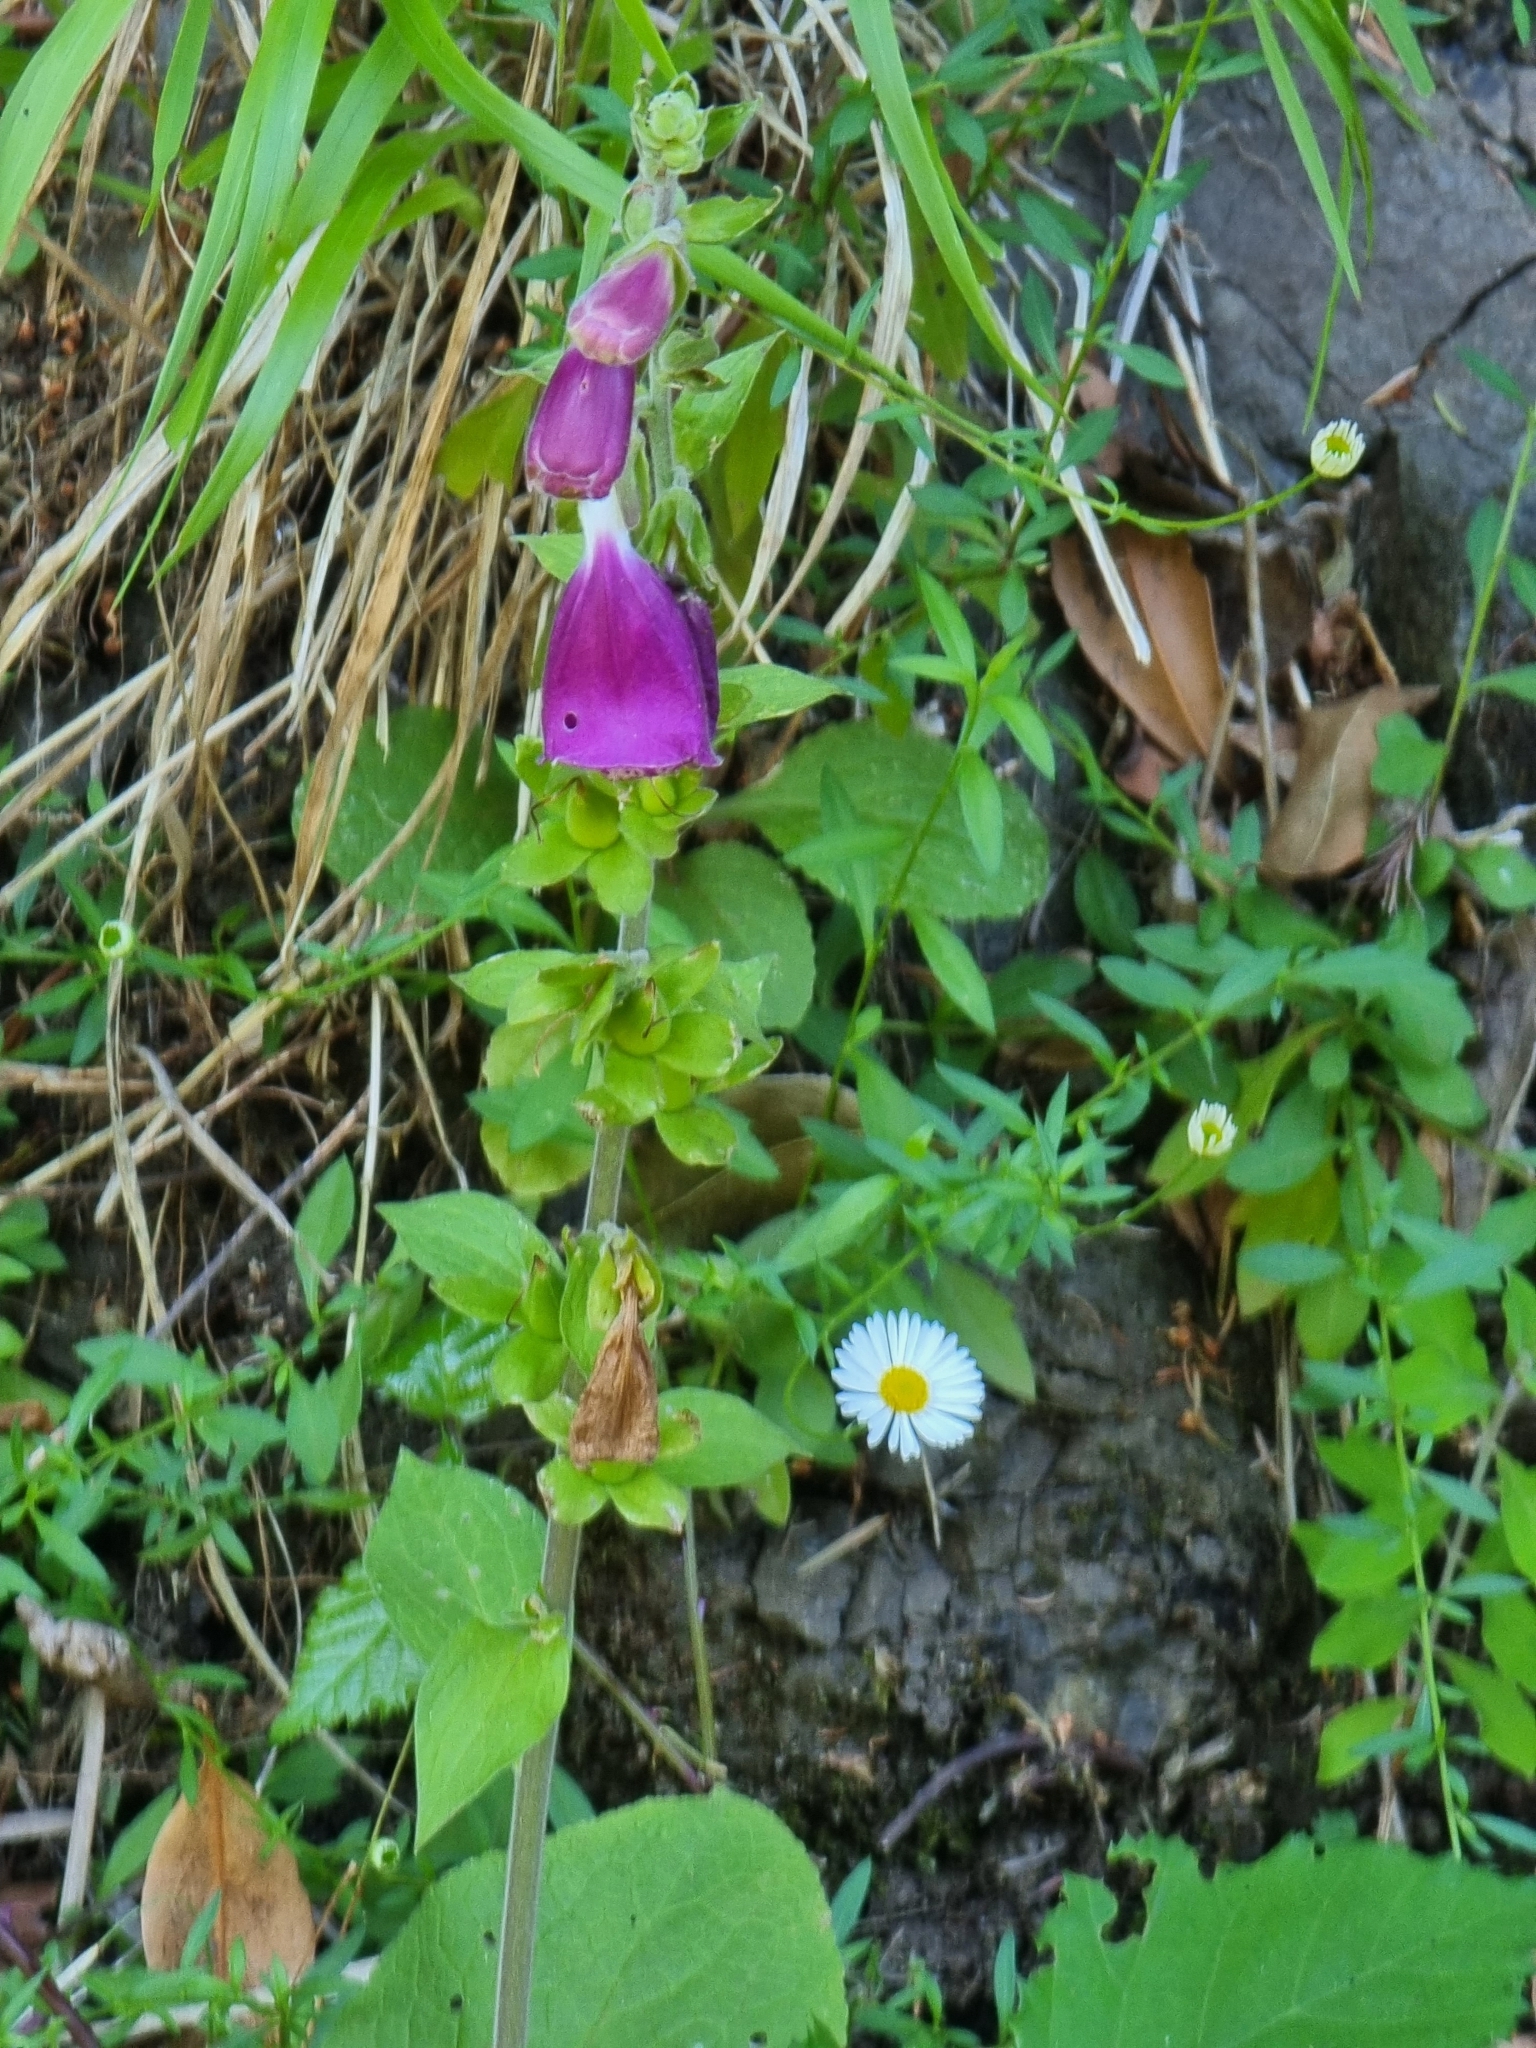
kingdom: Plantae
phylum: Tracheophyta
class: Magnoliopsida
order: Lamiales
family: Plantaginaceae
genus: Digitalis
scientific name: Digitalis purpurea
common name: Foxglove
